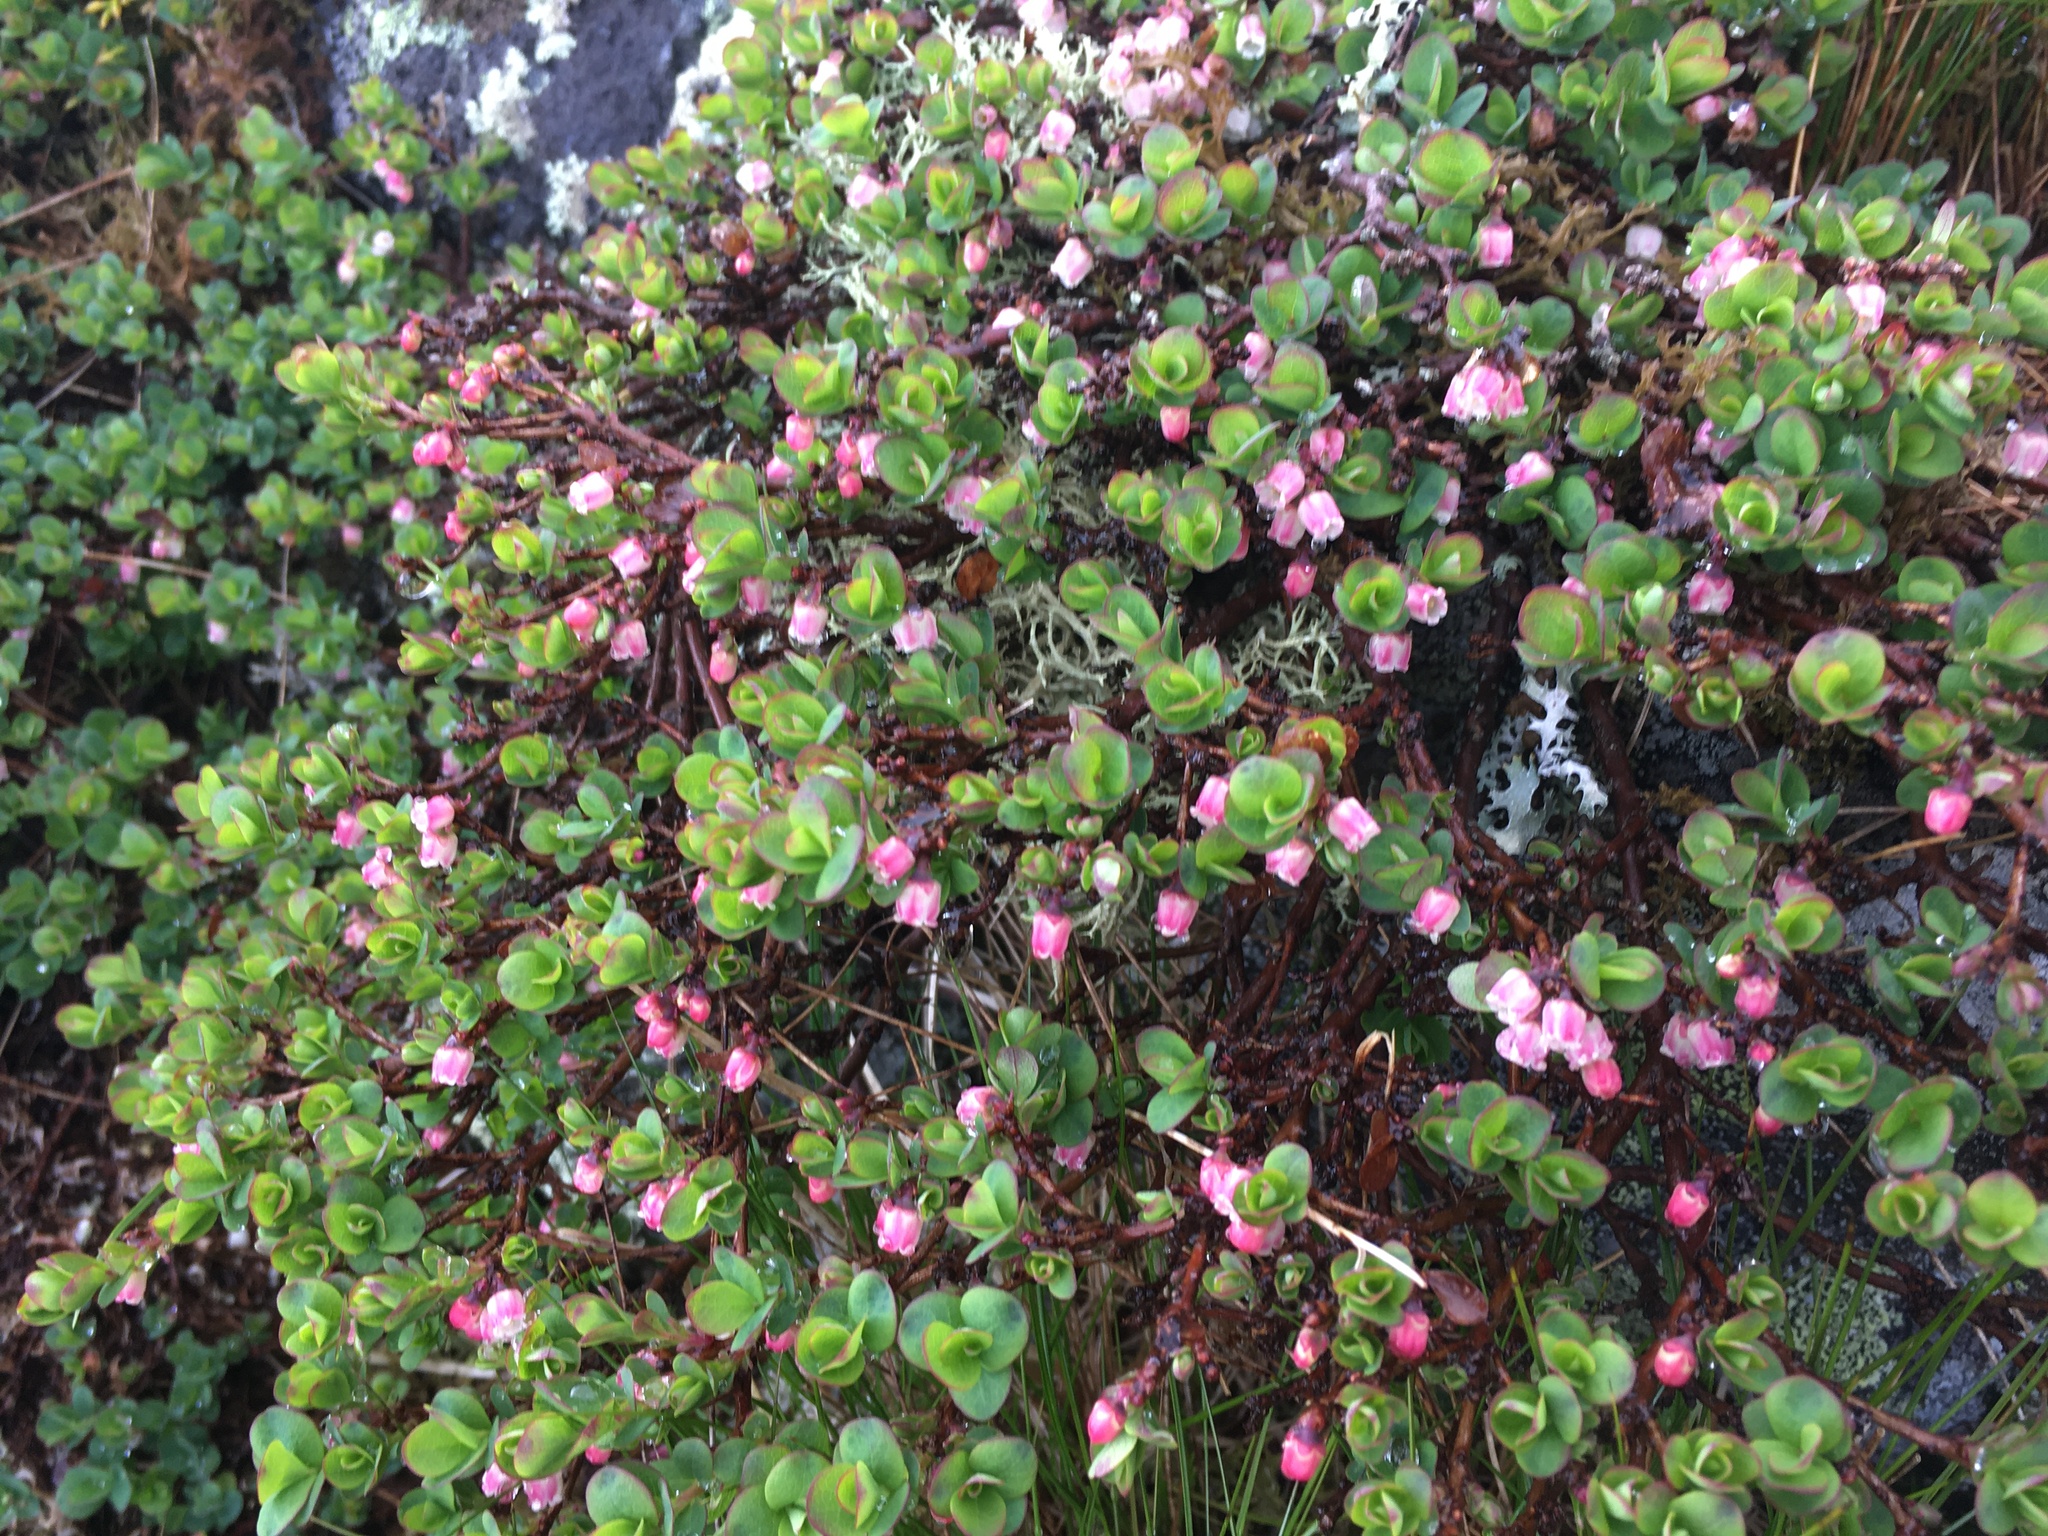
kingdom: Plantae
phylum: Tracheophyta
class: Magnoliopsida
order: Ericales
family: Ericaceae
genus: Vaccinium
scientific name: Vaccinium uliginosum
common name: Bog bilberry
